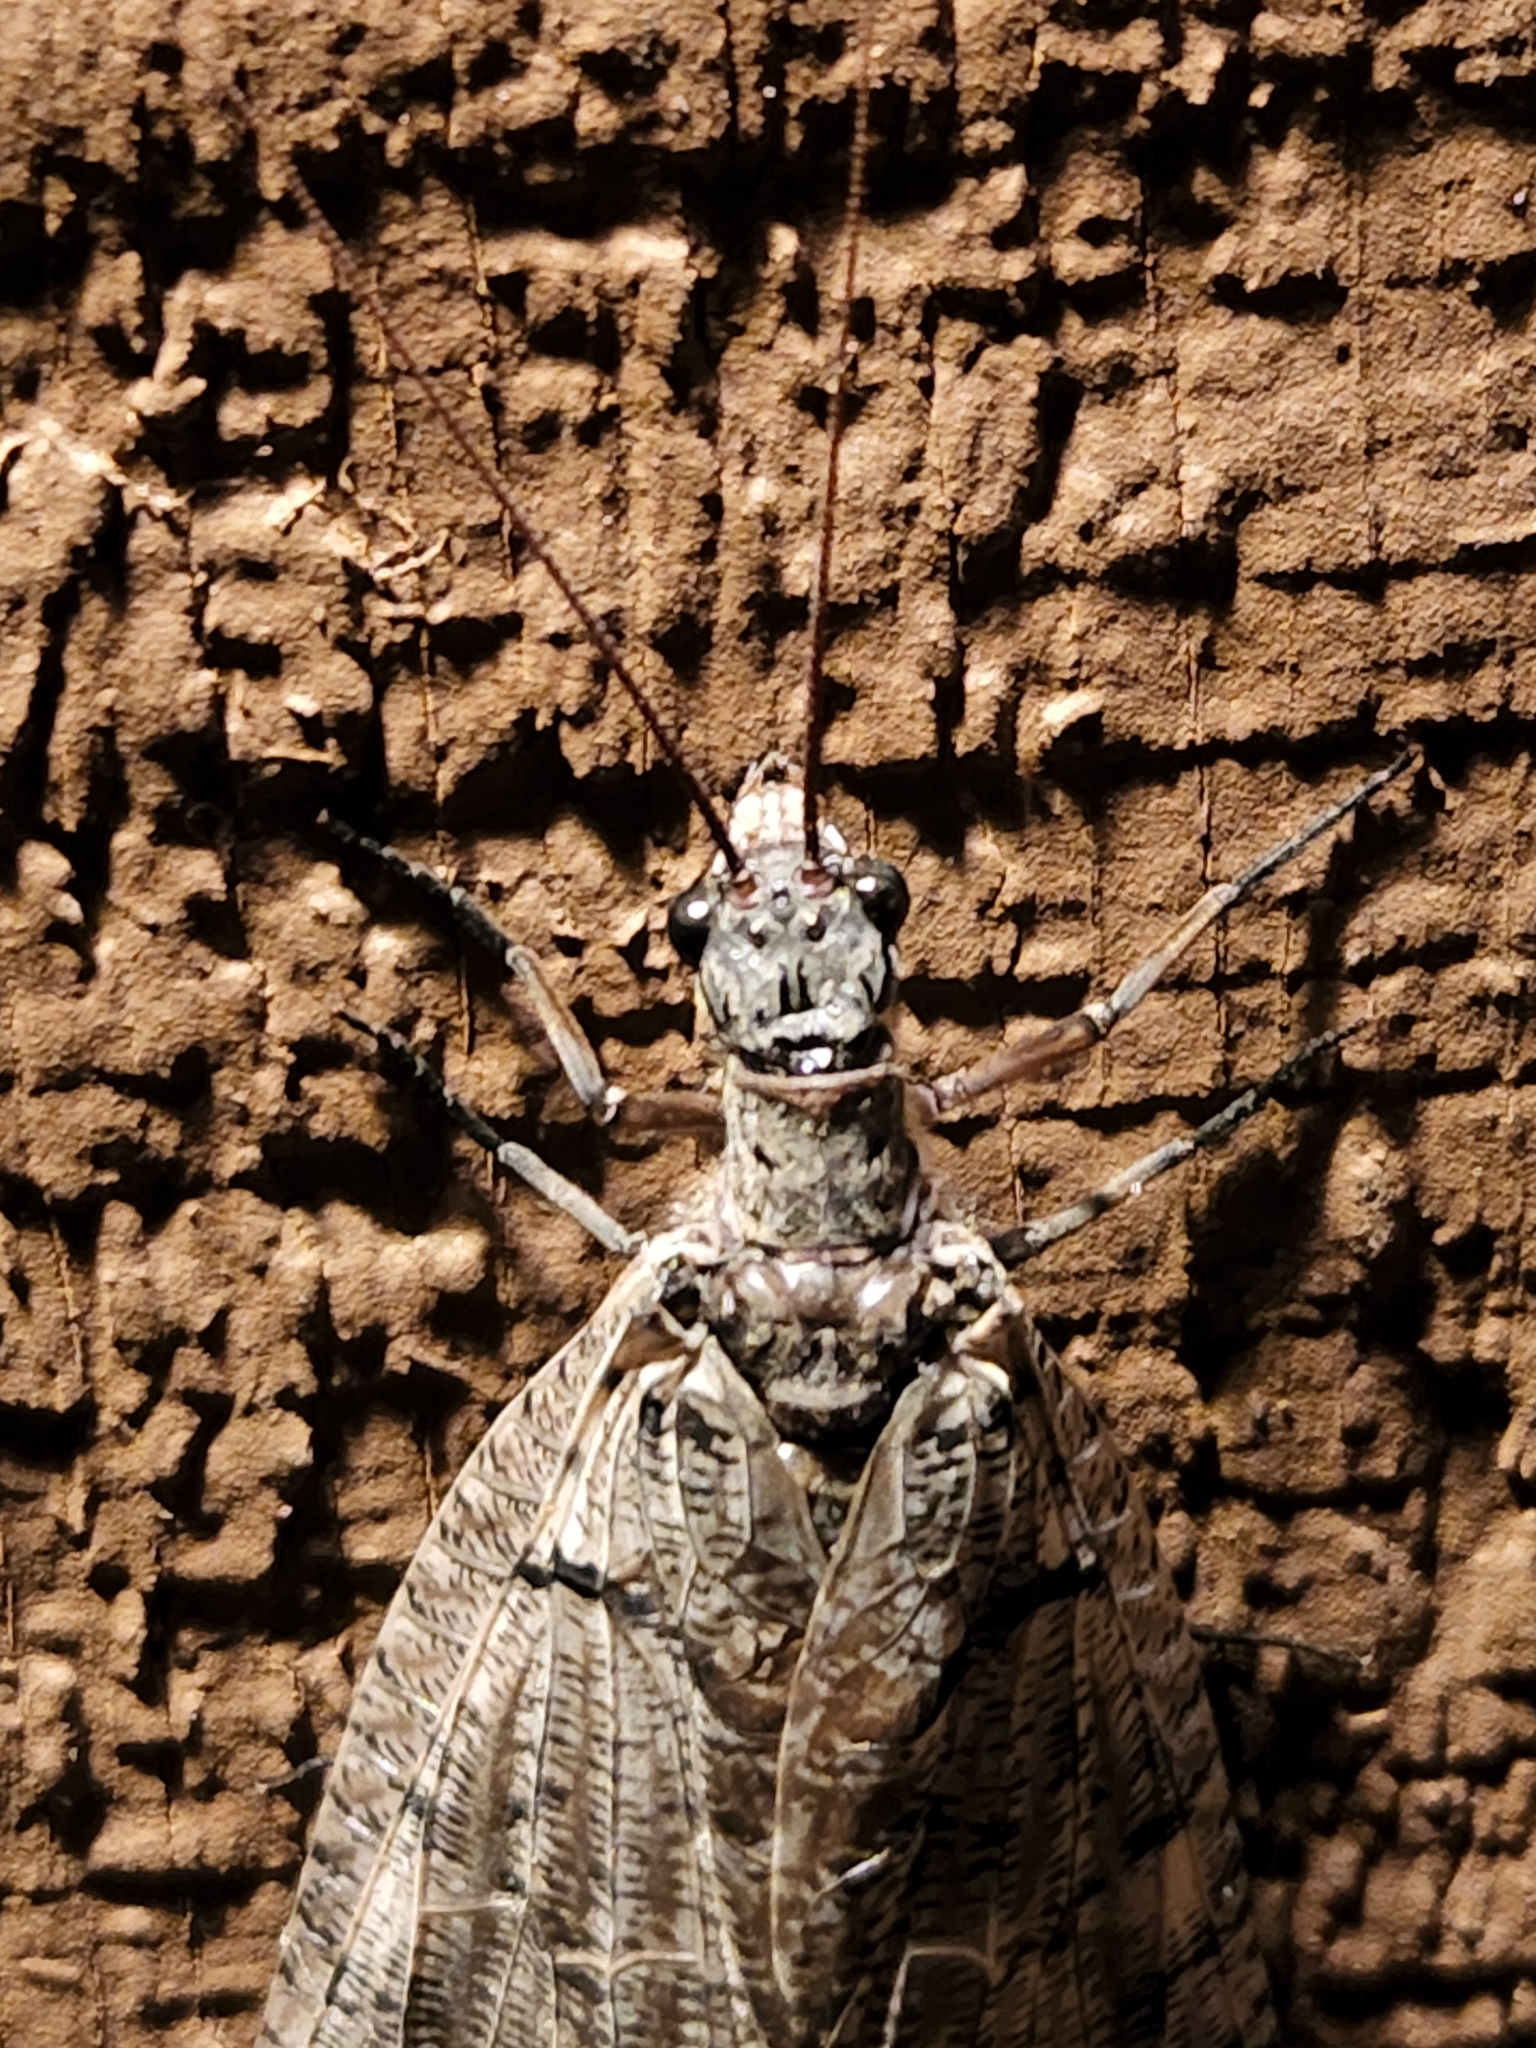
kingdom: Animalia
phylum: Arthropoda
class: Insecta
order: Megaloptera
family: Corydalidae
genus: Neohermes
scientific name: Neohermes filicornis
